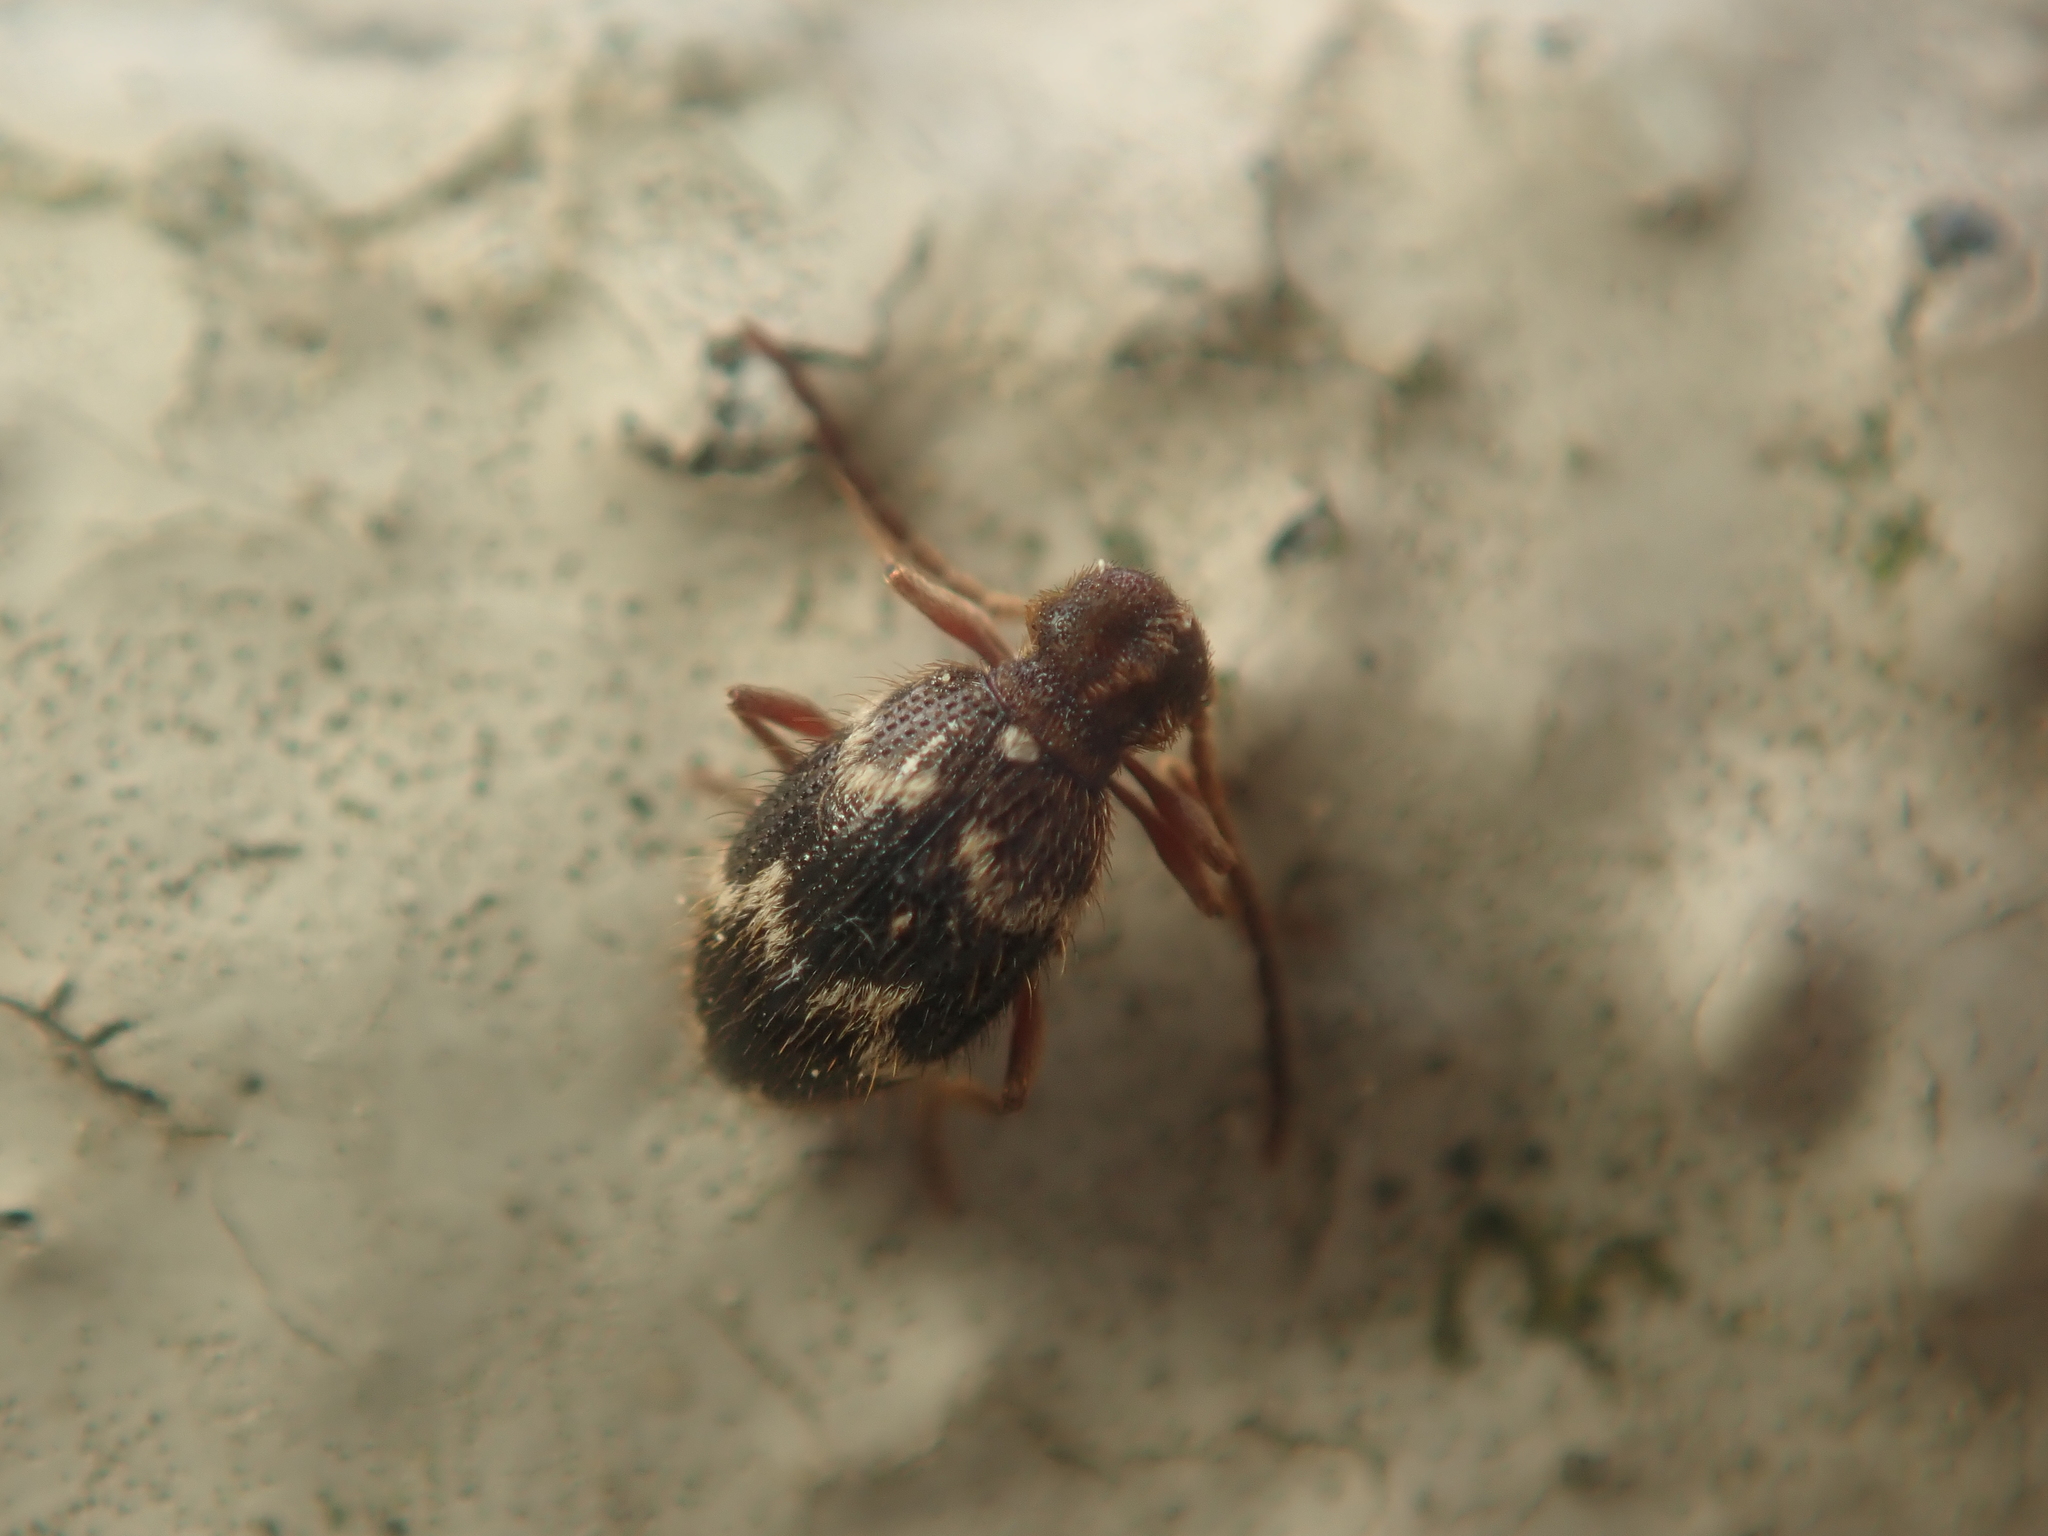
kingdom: Animalia
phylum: Arthropoda
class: Insecta
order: Coleoptera
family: Ptinidae
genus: Ptinus
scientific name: Ptinus rufipes
